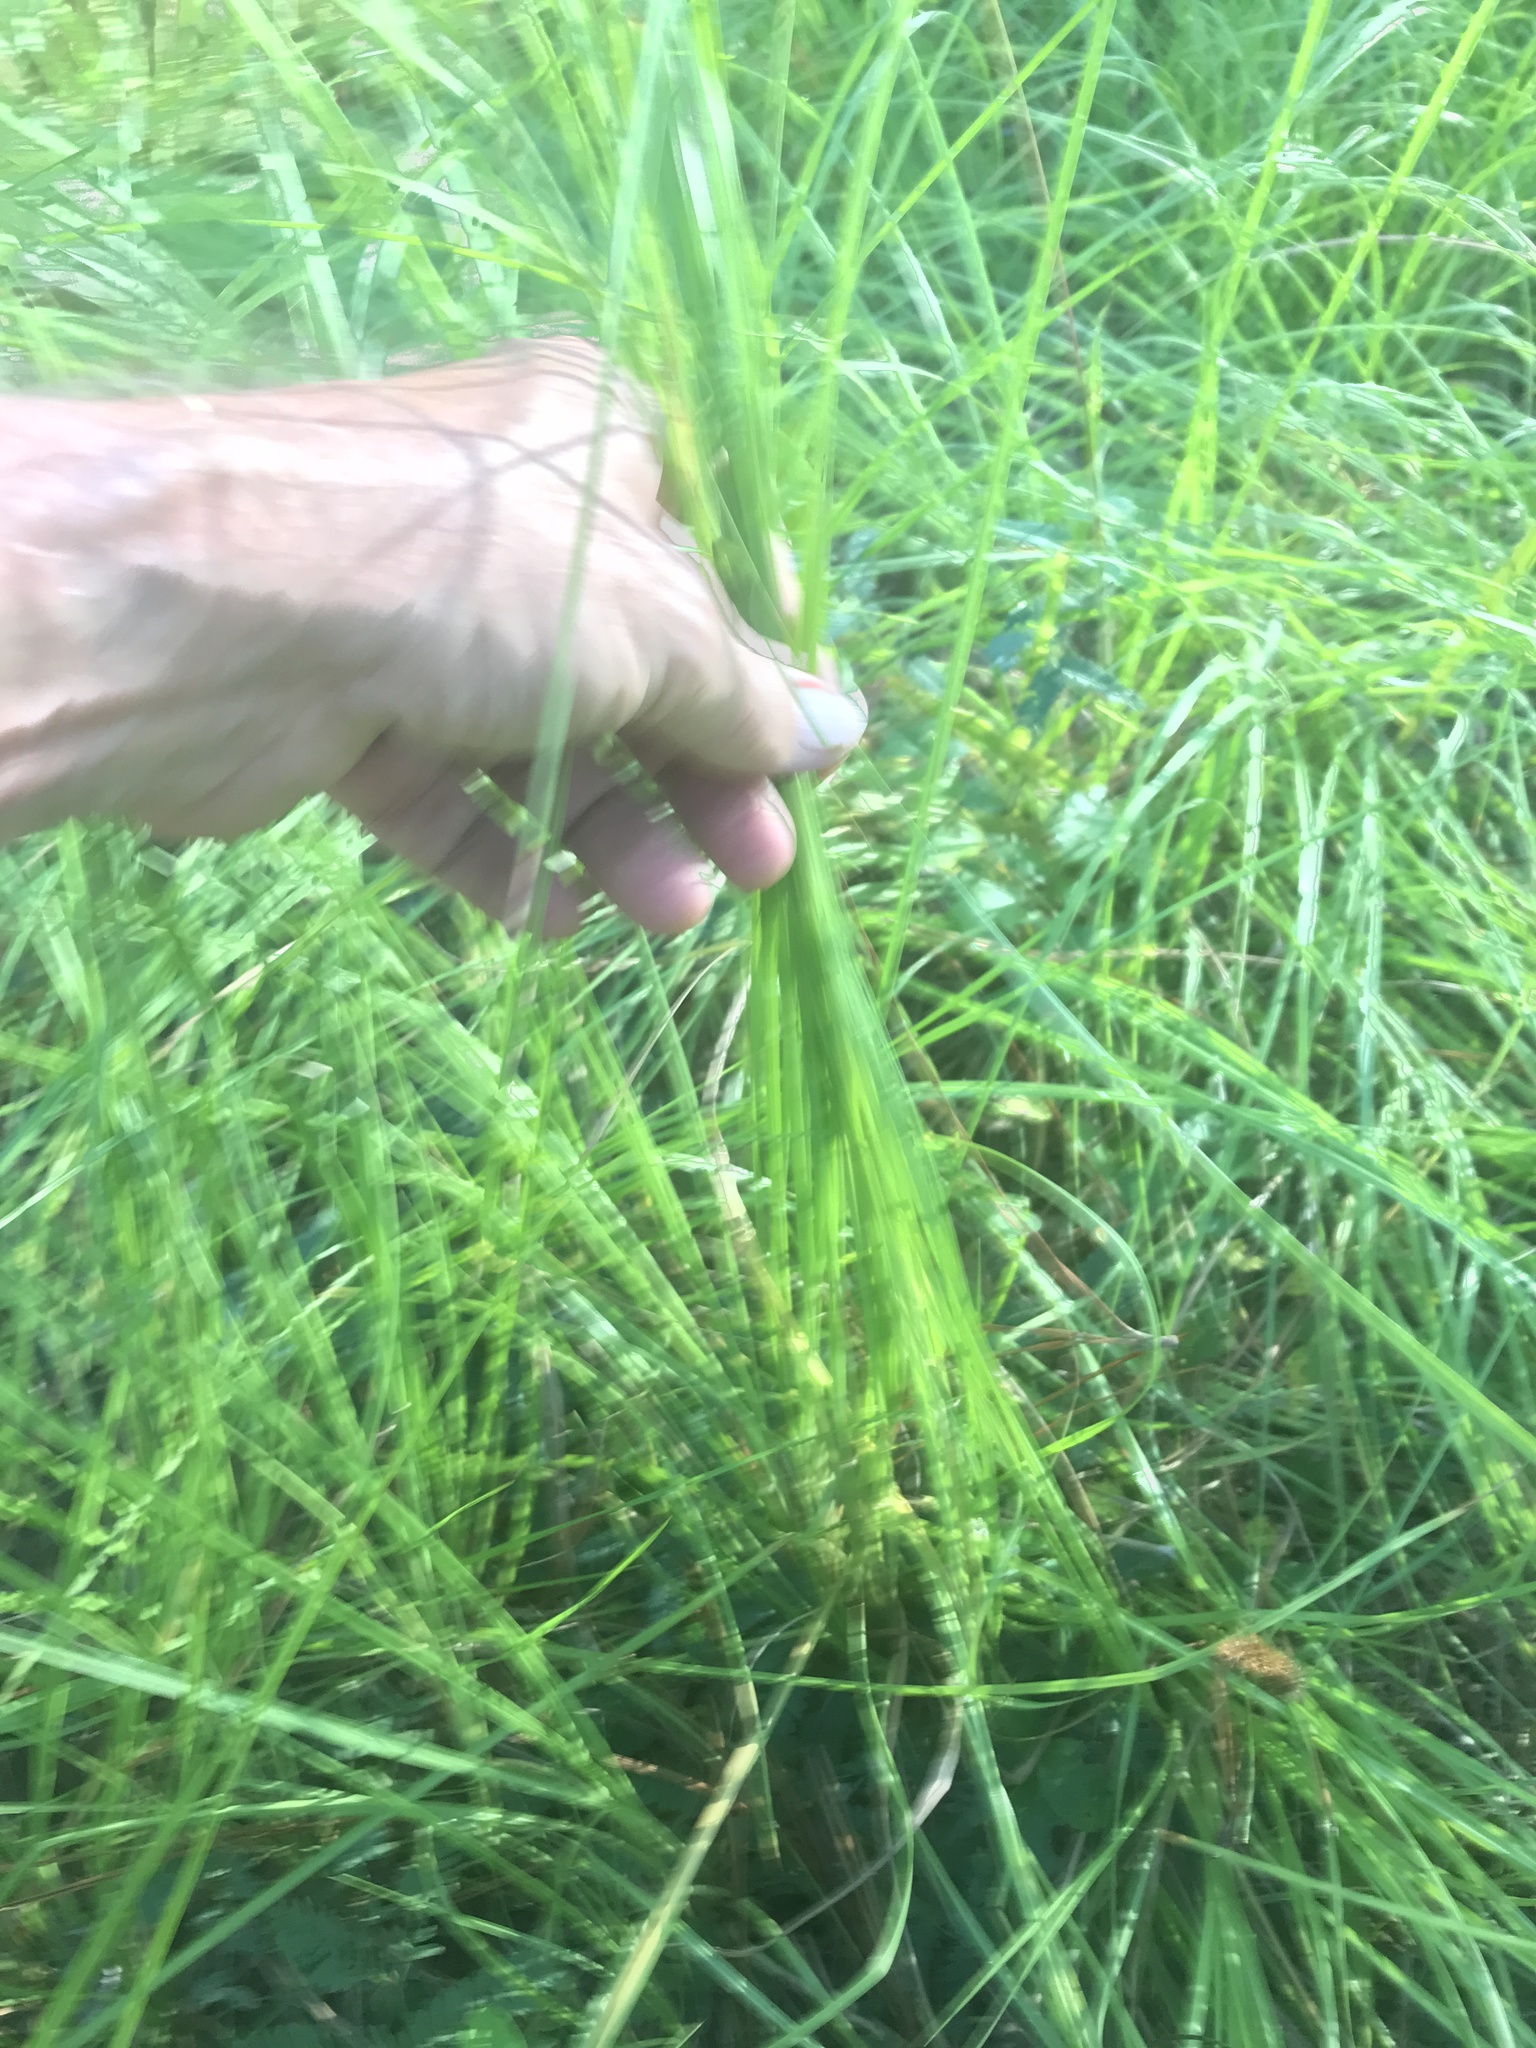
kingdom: Plantae
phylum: Tracheophyta
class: Liliopsida
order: Poales
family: Poaceae
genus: Chasmanthium
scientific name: Chasmanthium laxum
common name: Slender chasmanthium
